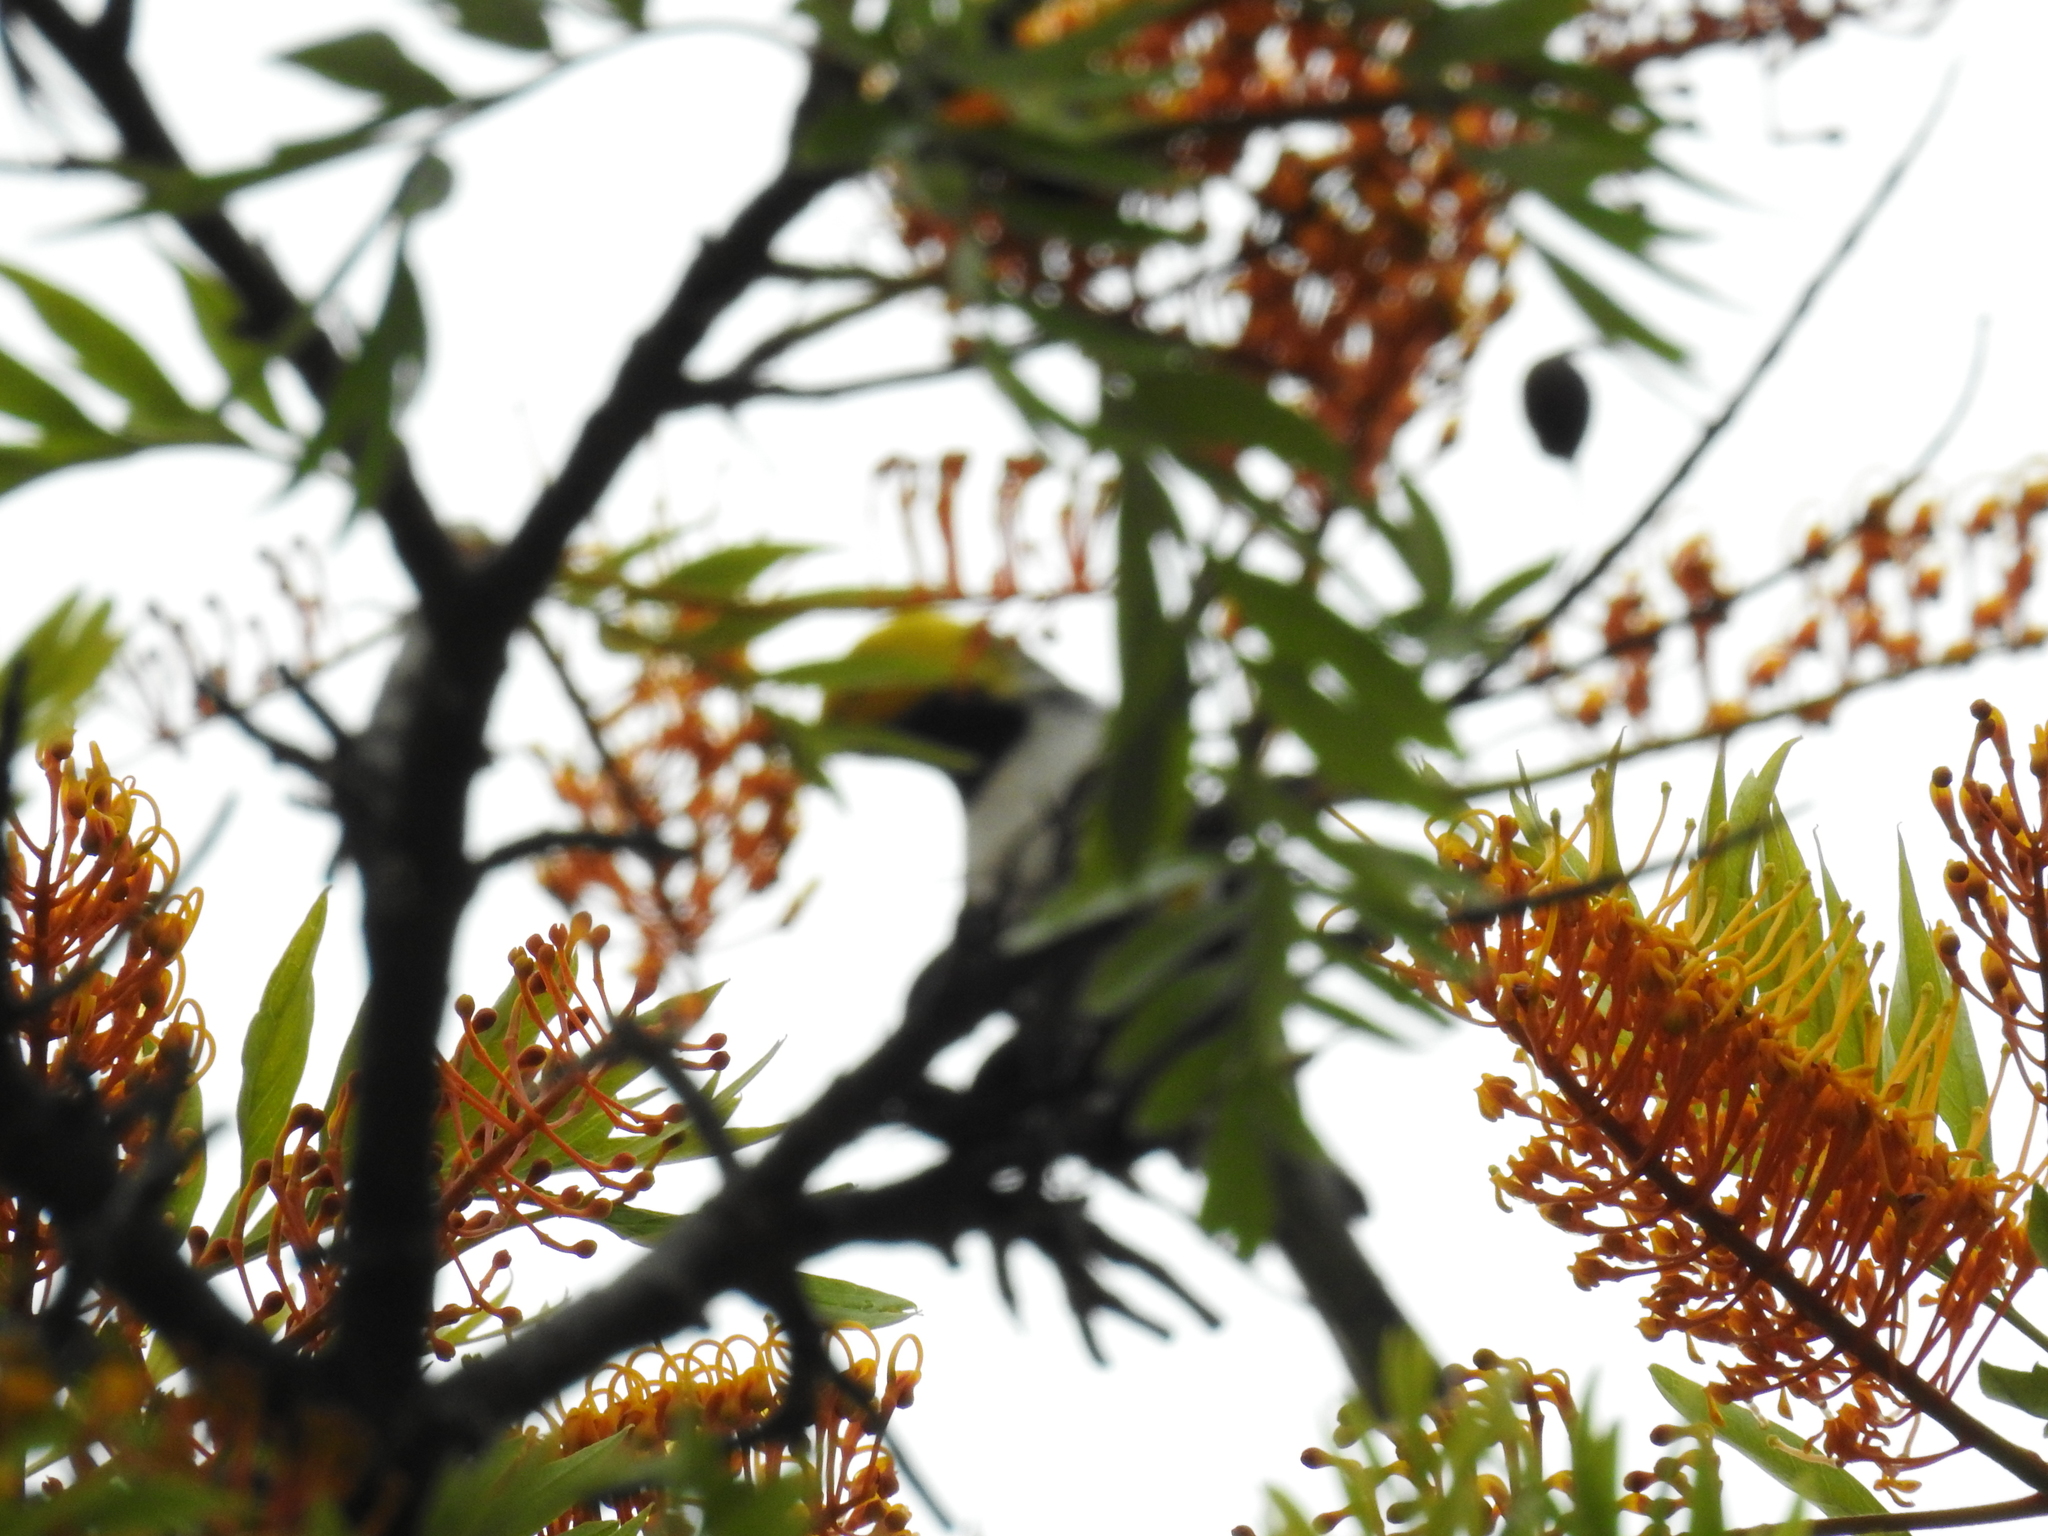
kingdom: Animalia
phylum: Chordata
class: Aves
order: Passeriformes
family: Parulidae
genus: Setophaga
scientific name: Setophaga occidentalis
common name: Hermit warbler
